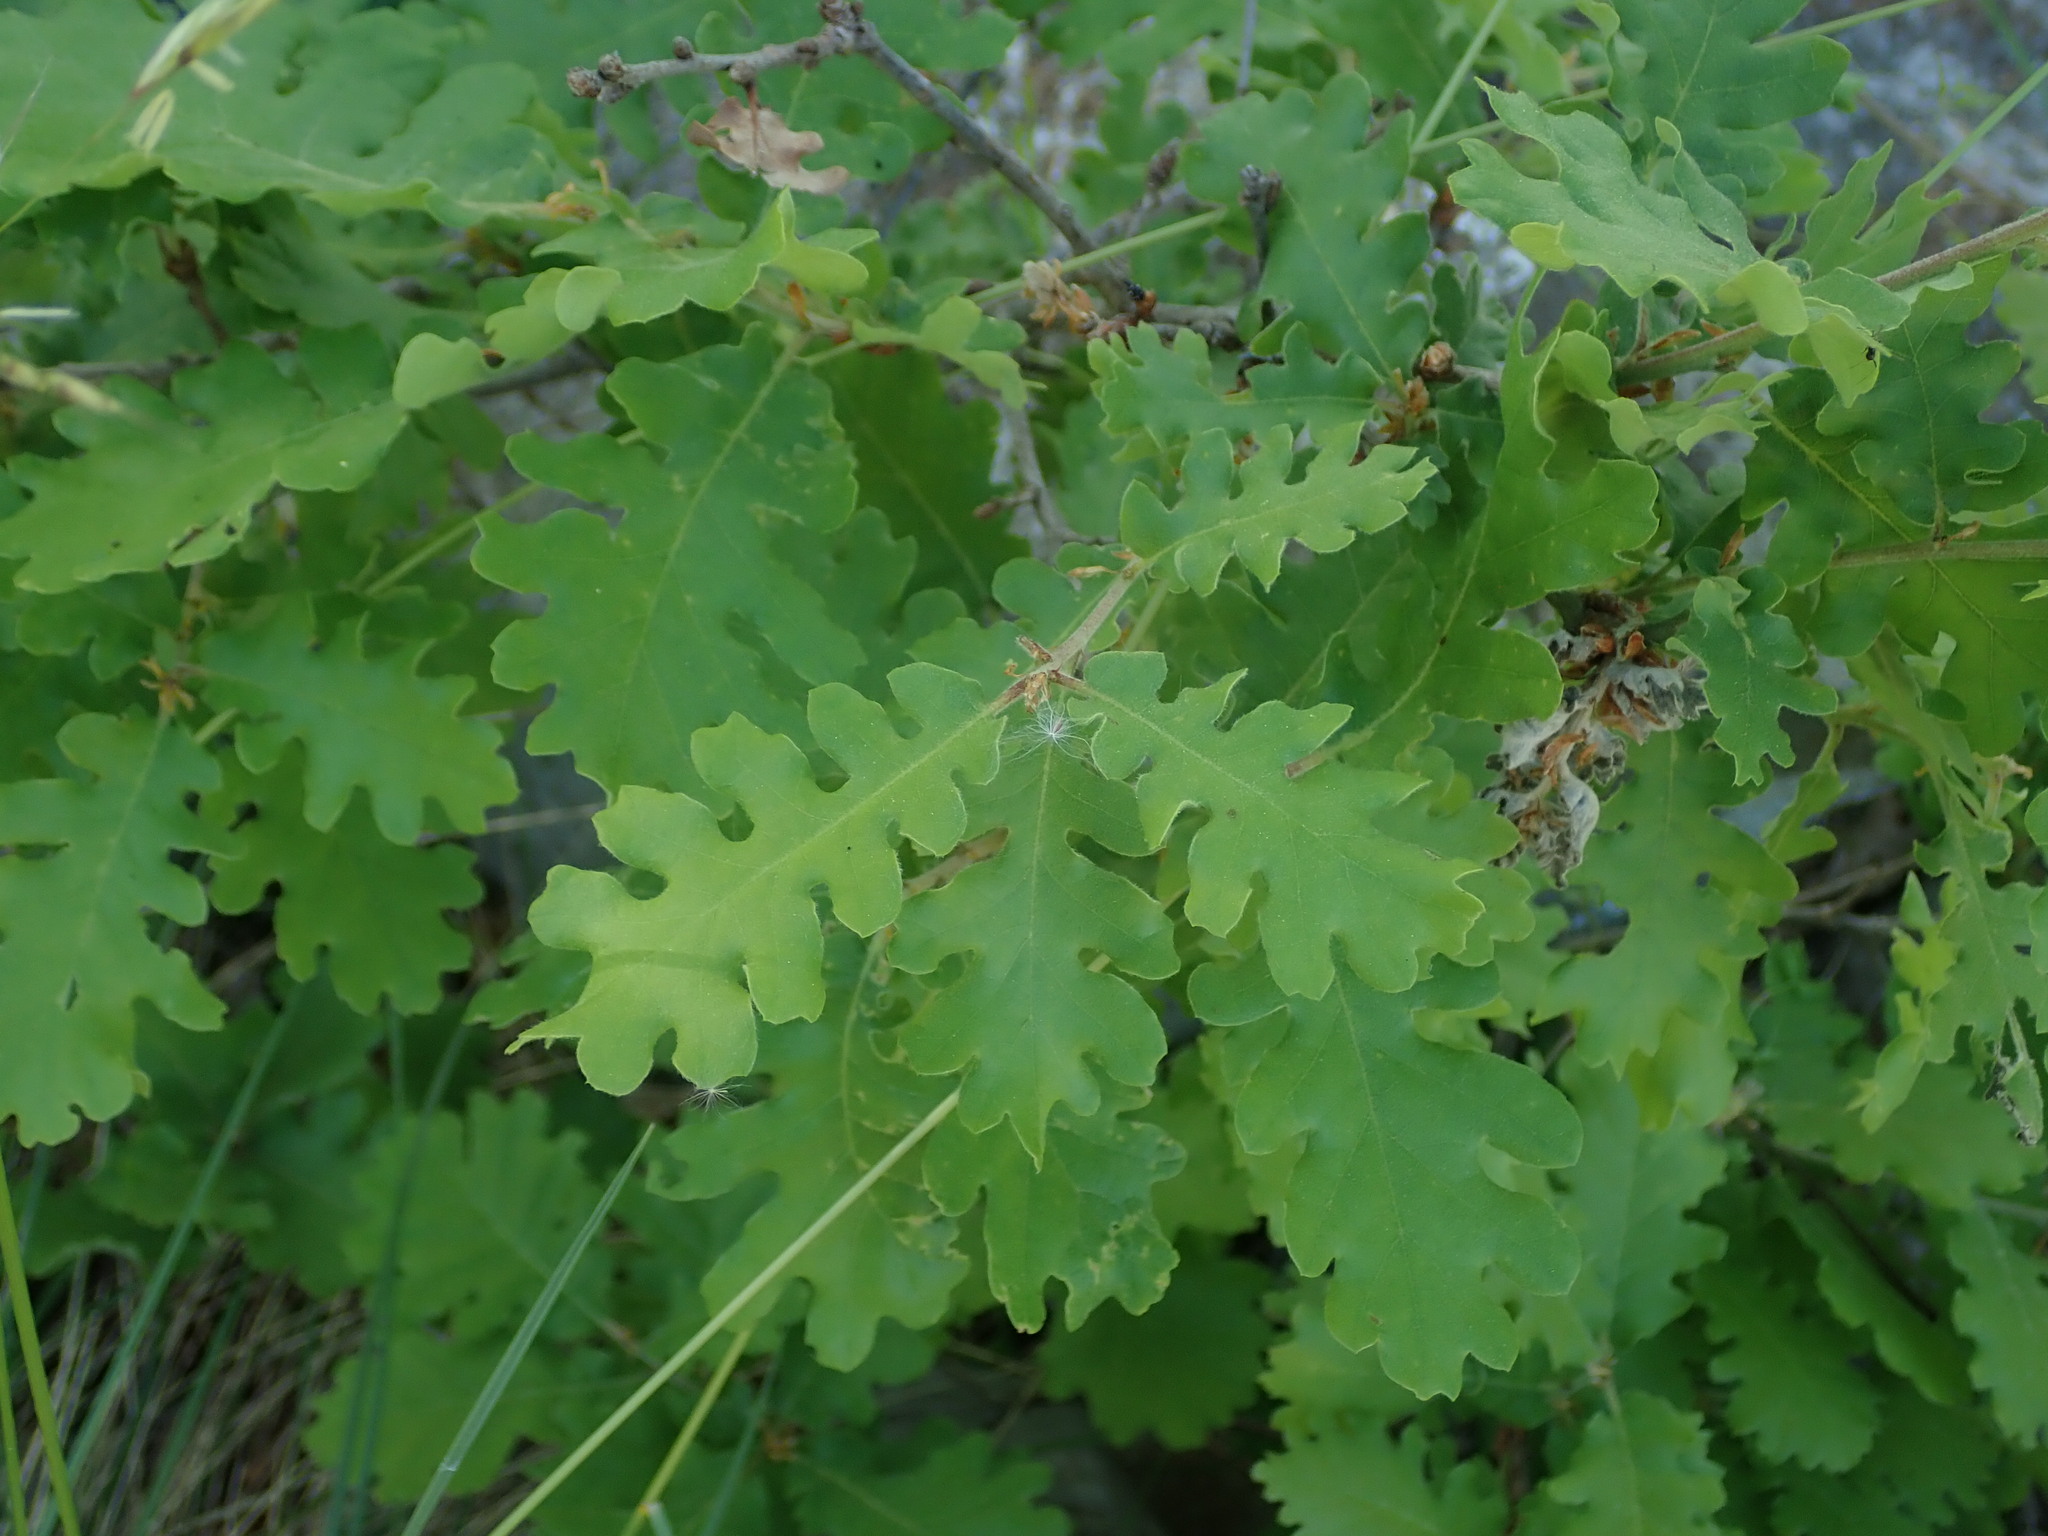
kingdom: Plantae
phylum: Tracheophyta
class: Magnoliopsida
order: Fagales
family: Fagaceae
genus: Quercus
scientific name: Quercus pubescens
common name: Downy oak
